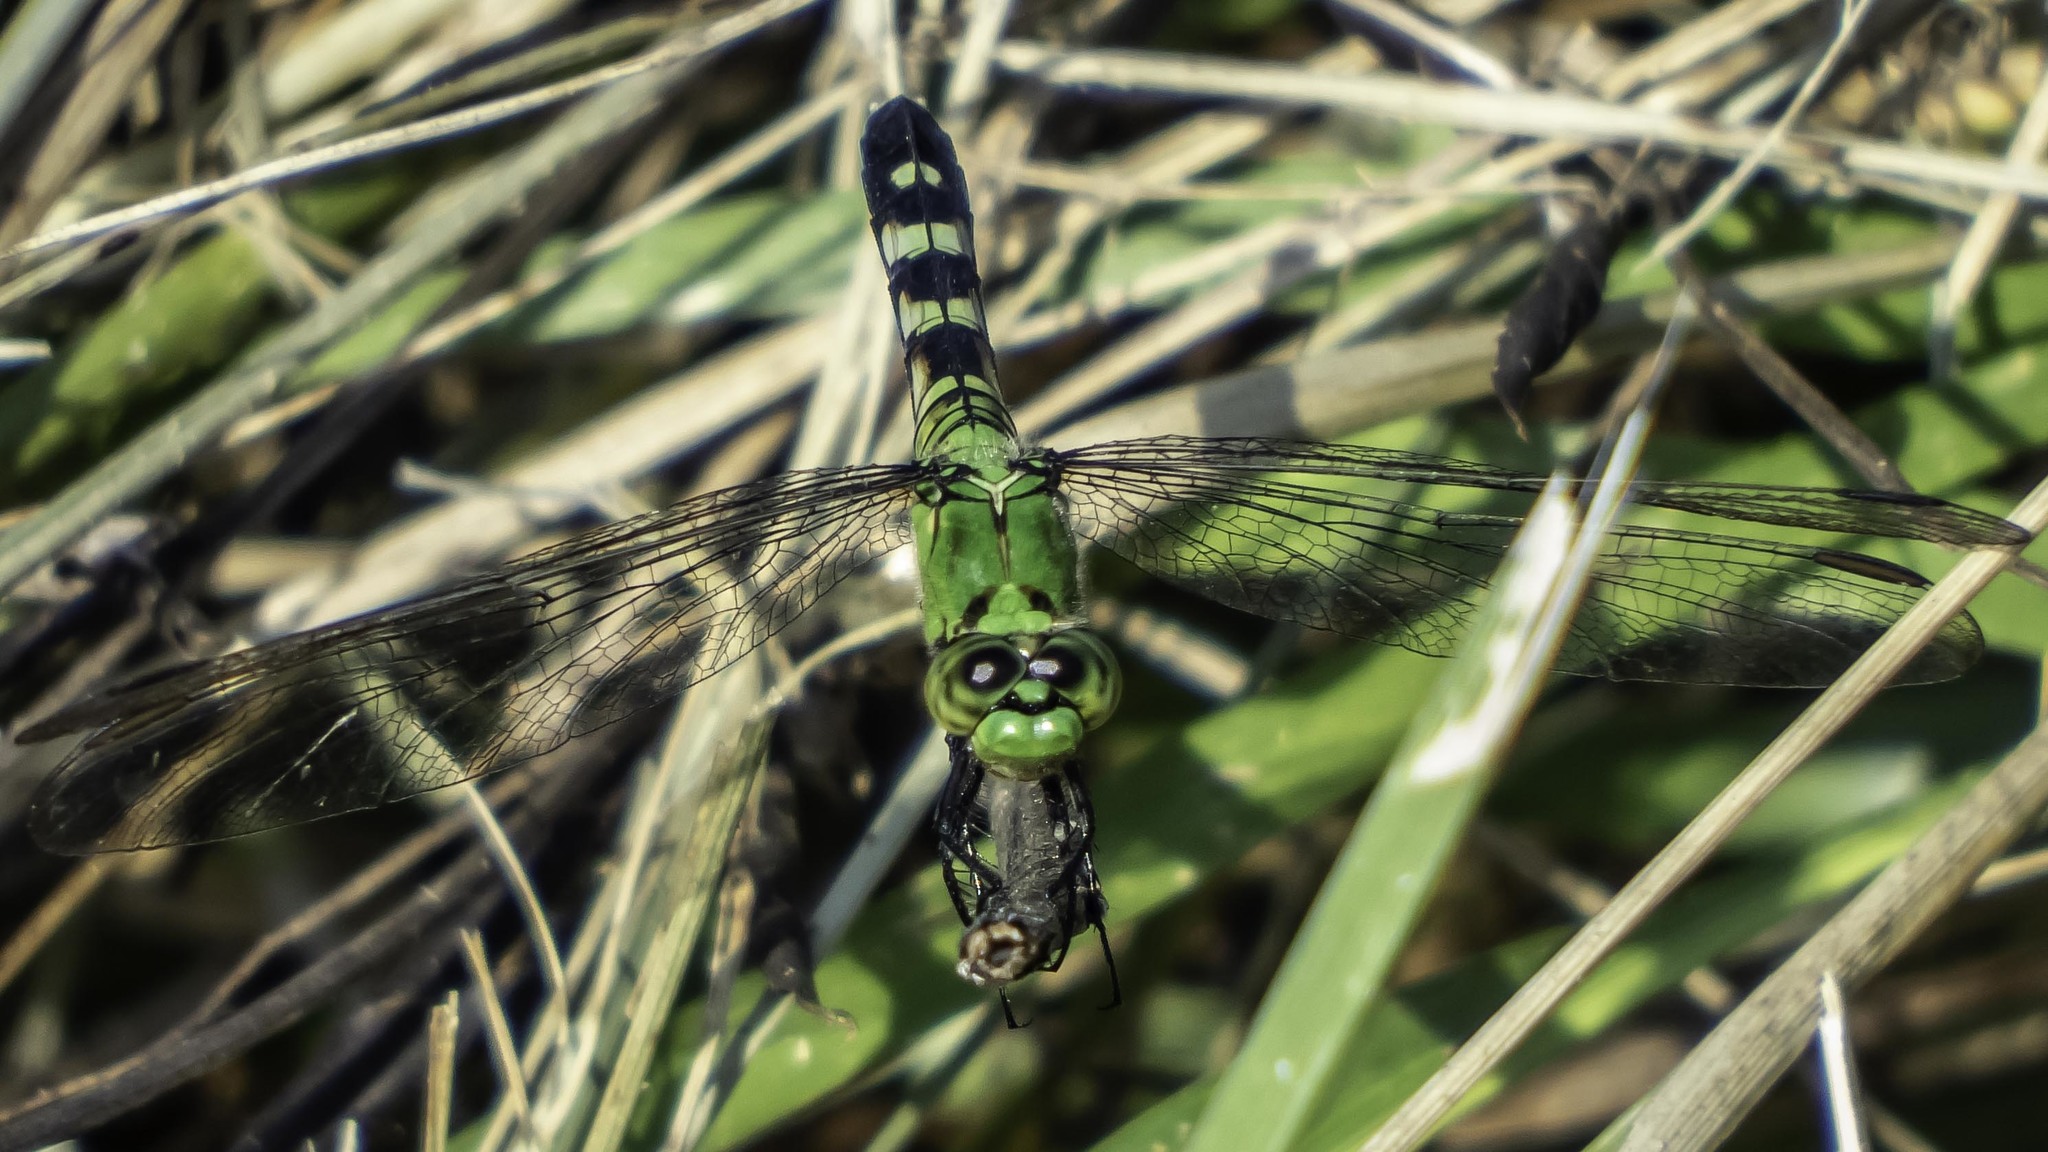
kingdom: Animalia
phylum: Arthropoda
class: Insecta
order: Odonata
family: Libellulidae
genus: Erythemis
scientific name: Erythemis simplicicollis
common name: Eastern pondhawk
